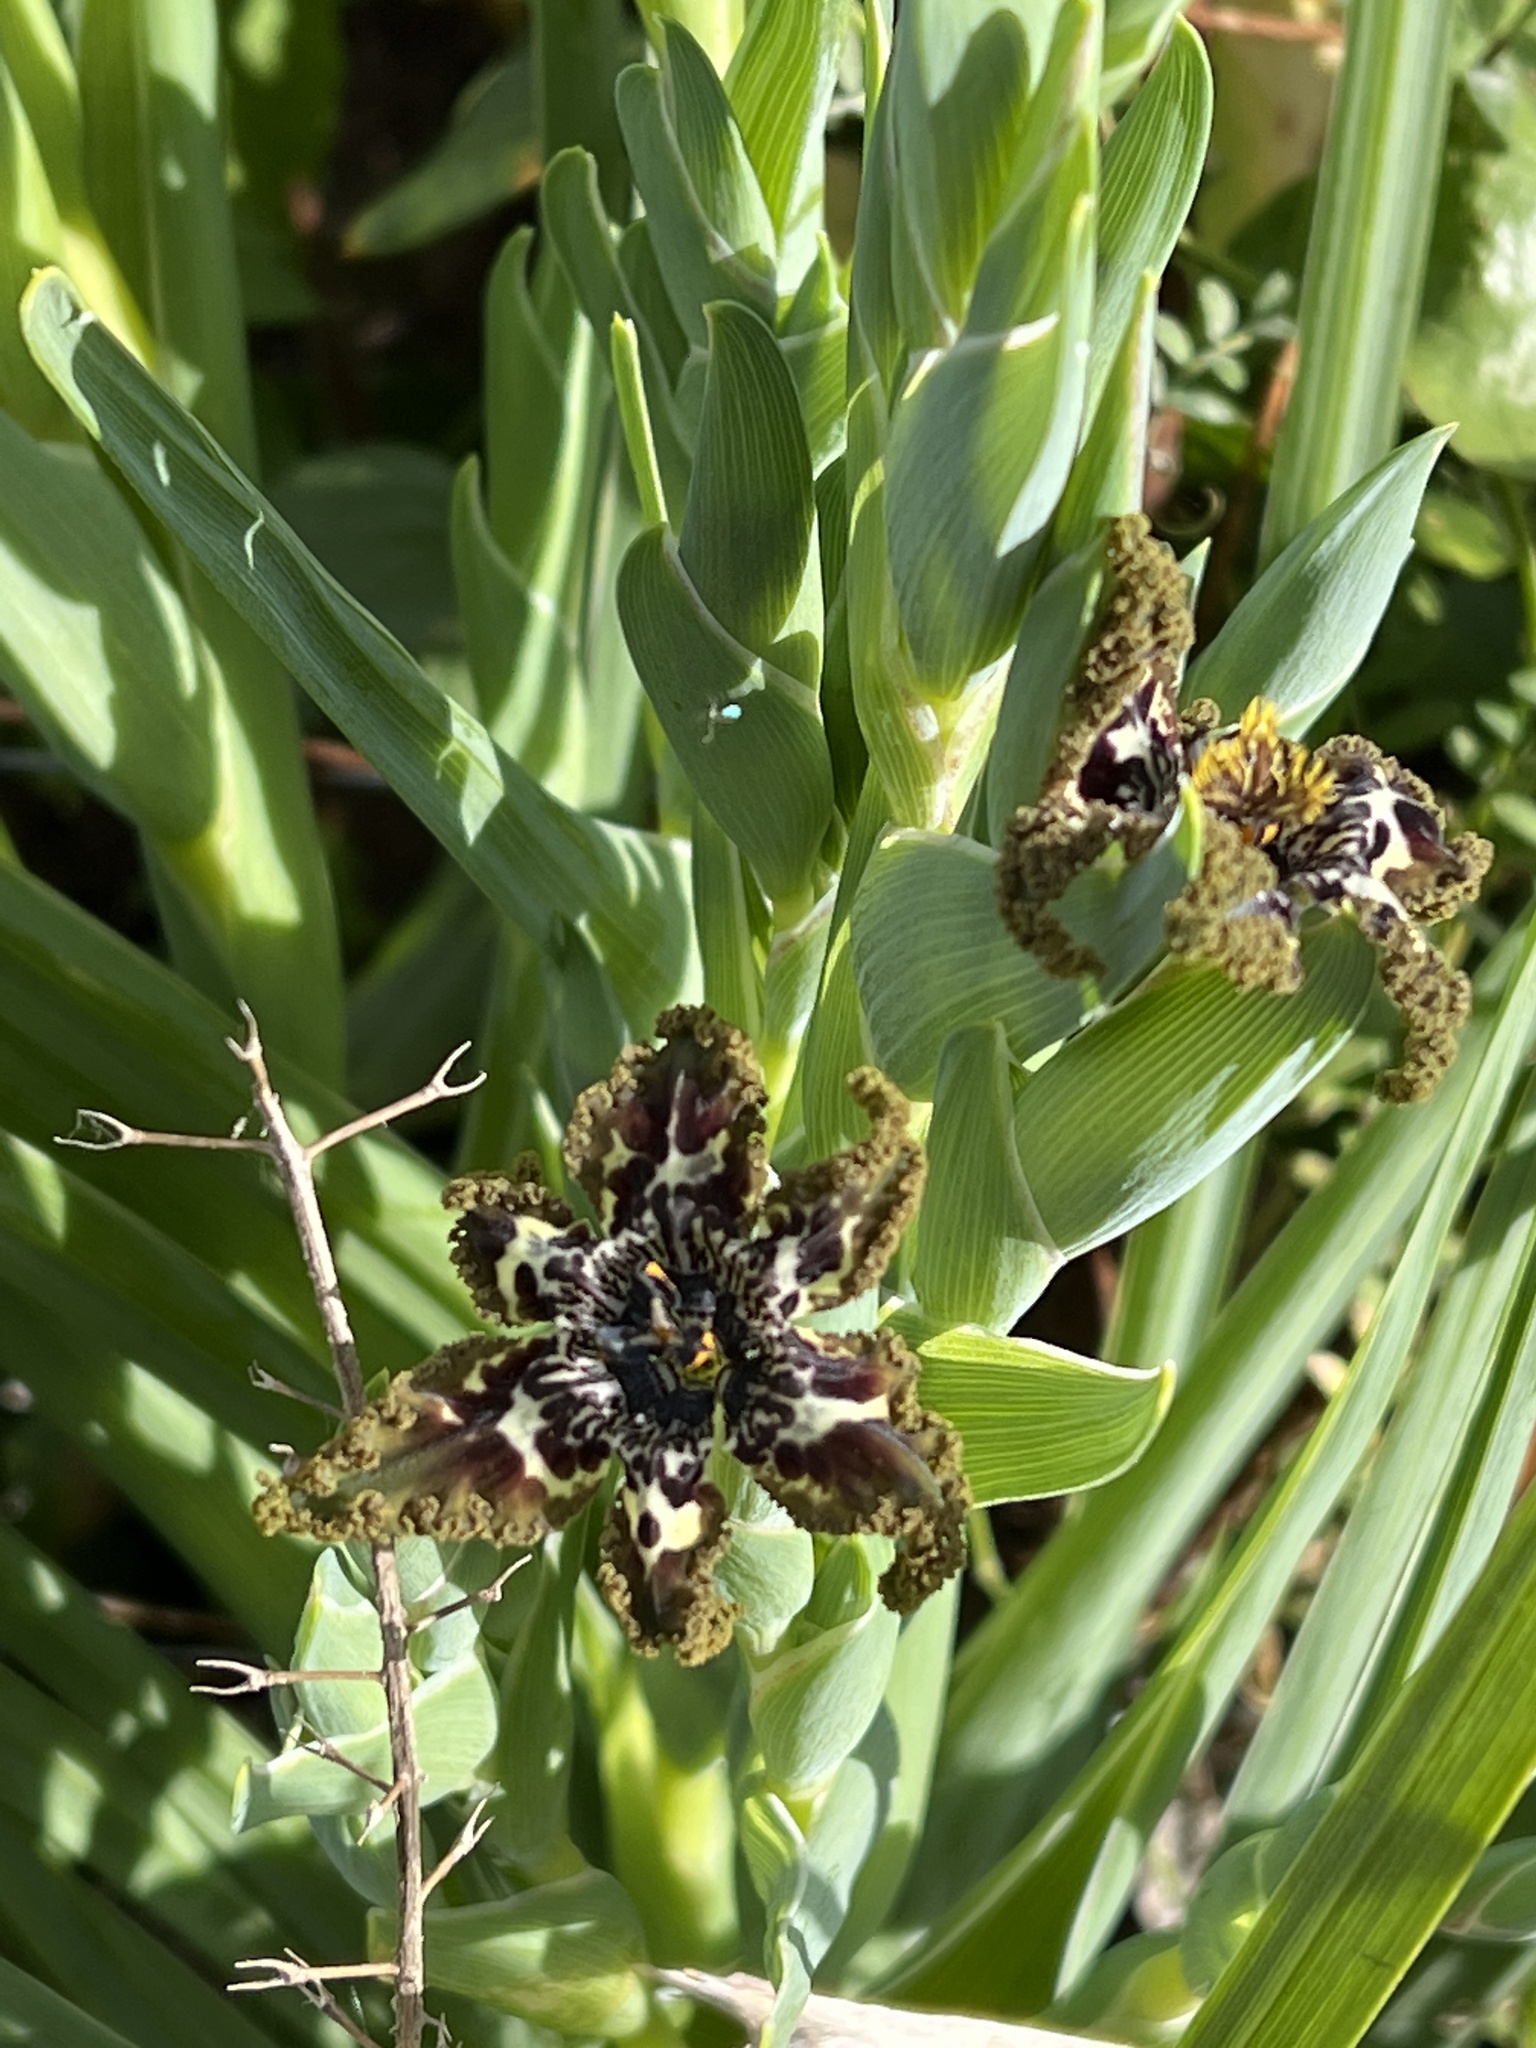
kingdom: Plantae
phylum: Tracheophyta
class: Liliopsida
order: Asparagales
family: Iridaceae
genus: Ferraria
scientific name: Ferraria crispa
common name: Black-flag
